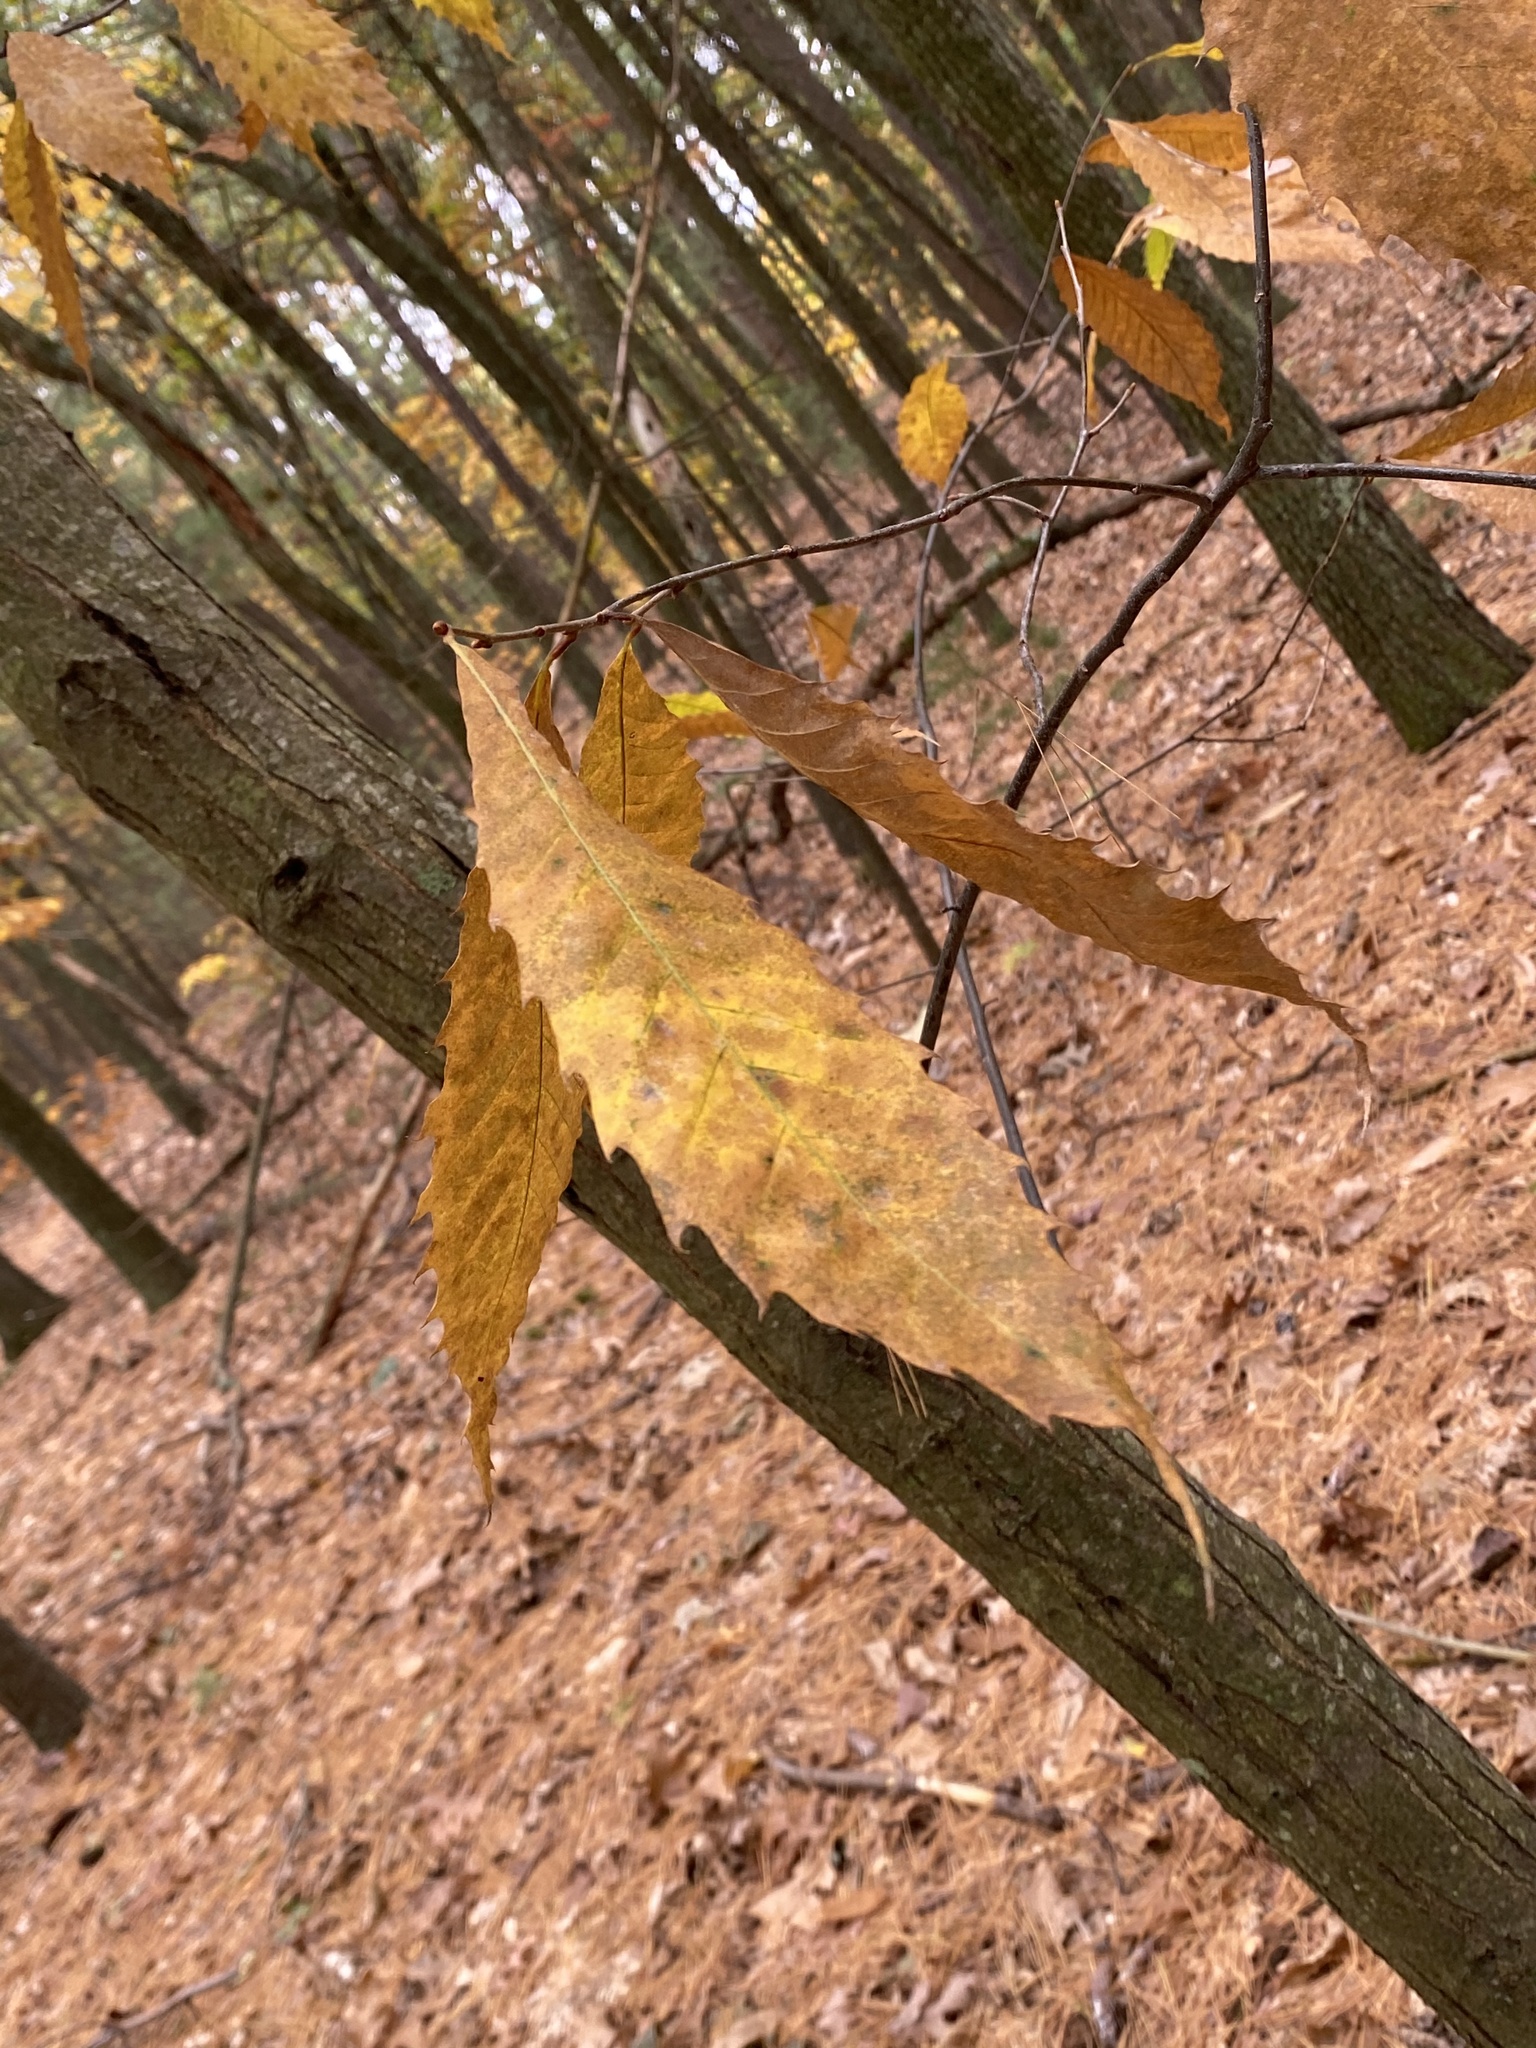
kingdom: Plantae
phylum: Tracheophyta
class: Magnoliopsida
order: Fagales
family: Fagaceae
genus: Castanea
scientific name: Castanea dentata
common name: American chestnut
